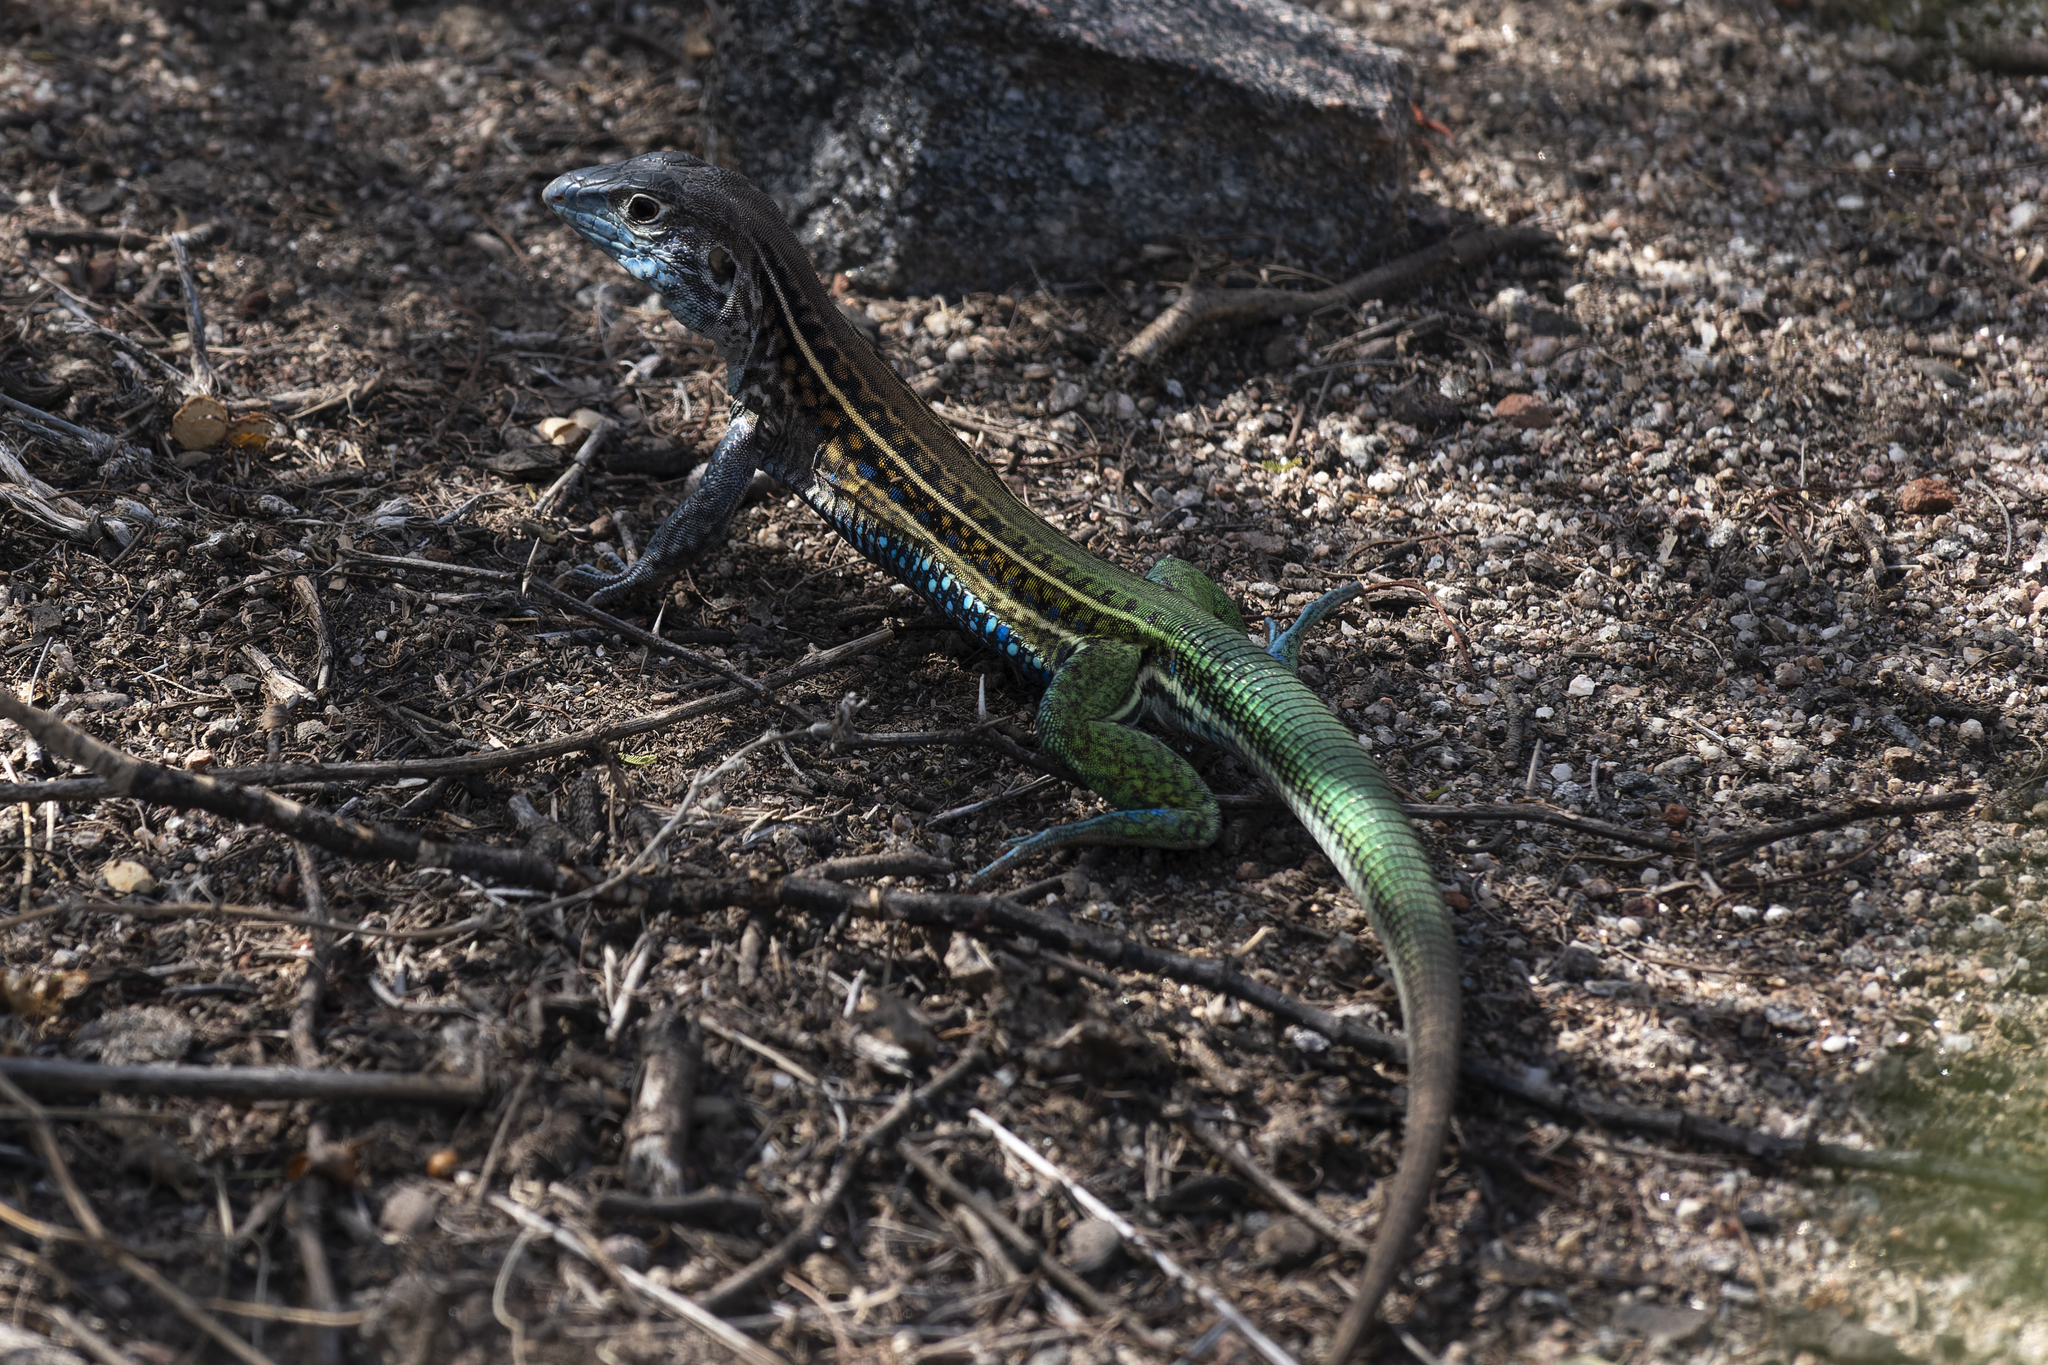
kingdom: Animalia
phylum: Chordata
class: Squamata
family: Teiidae
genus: Teius
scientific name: Teius teyou
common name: Four-toed tegu
